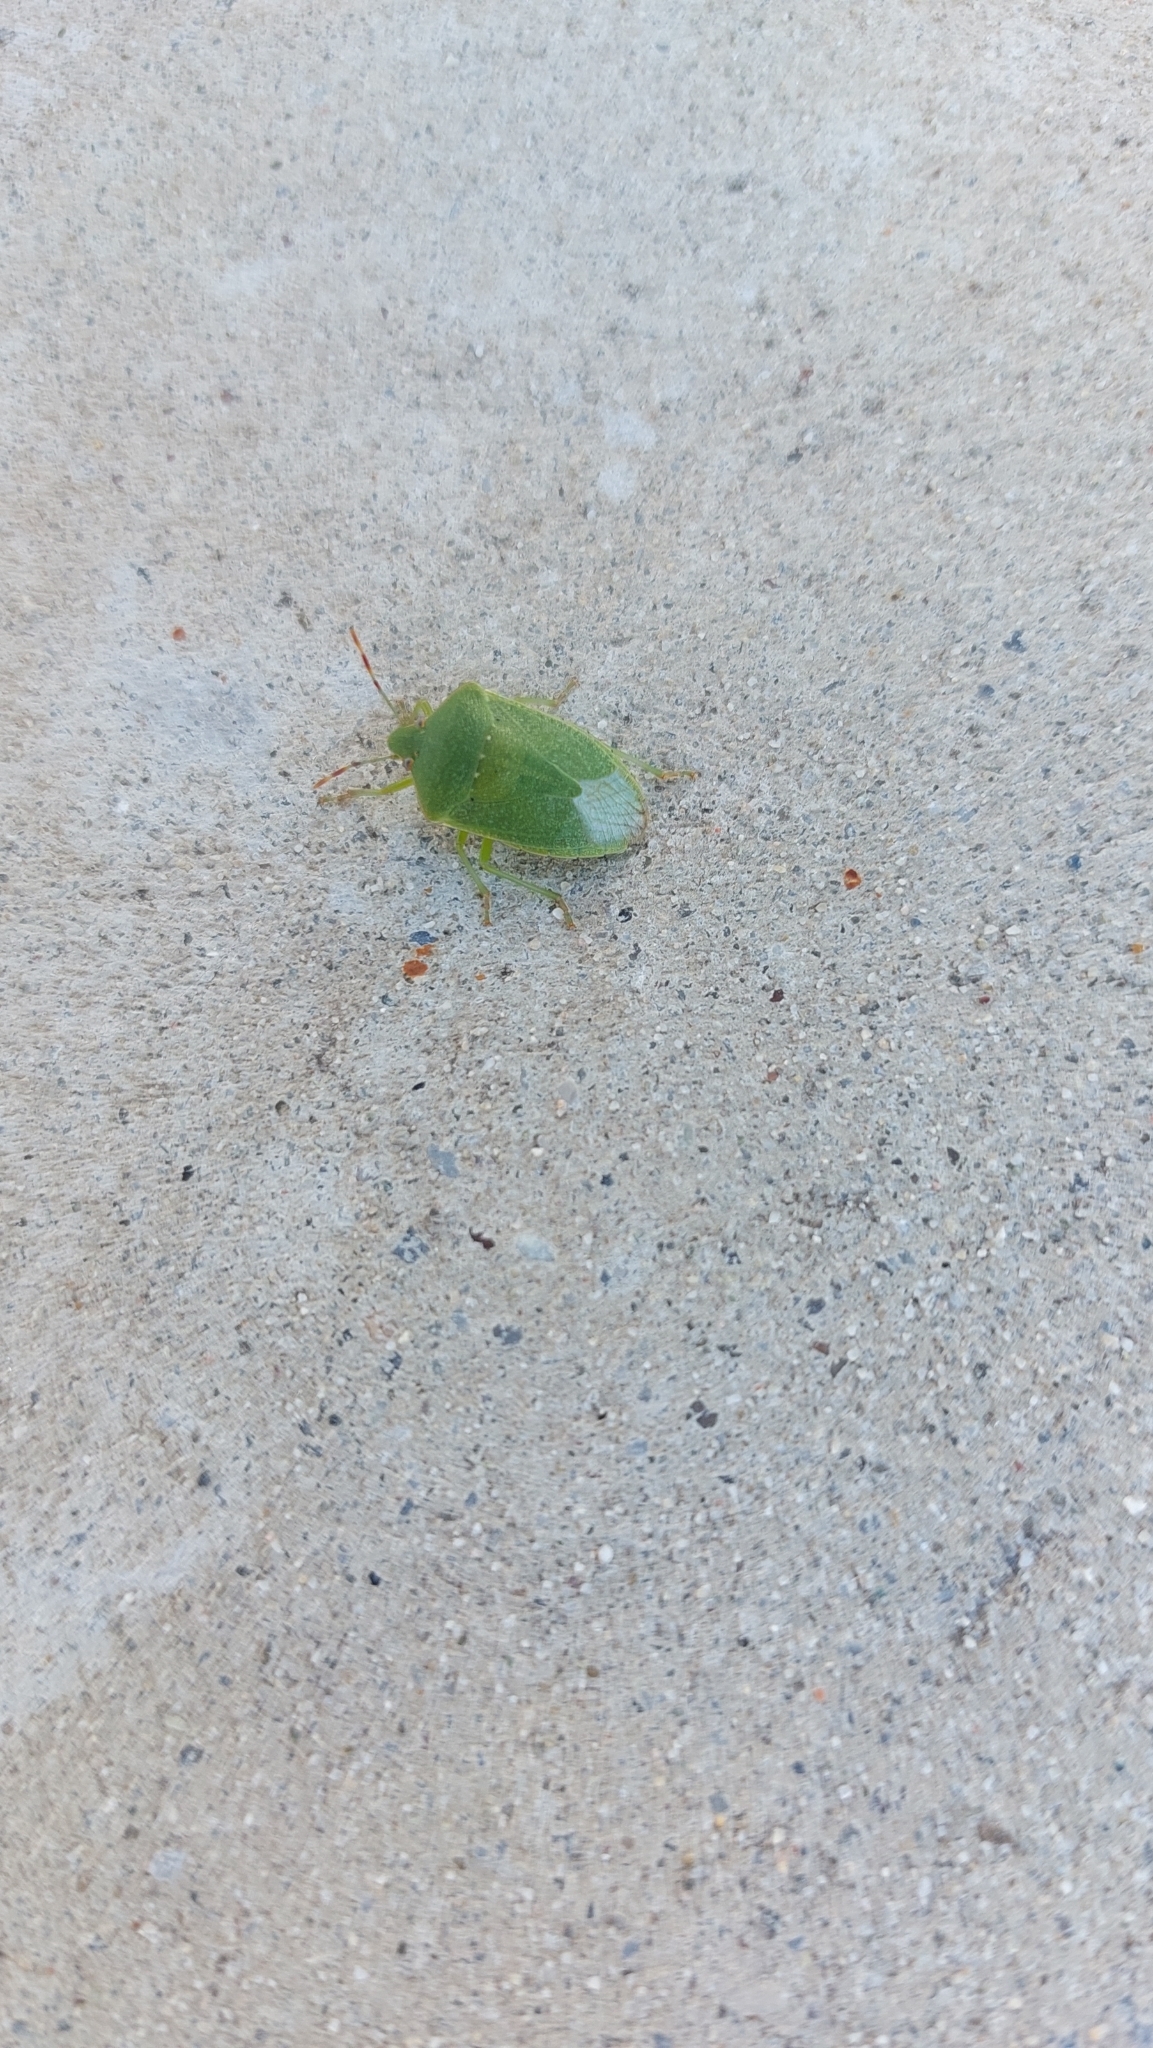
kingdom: Animalia
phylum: Arthropoda
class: Insecta
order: Hemiptera
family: Pentatomidae
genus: Nezara
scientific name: Nezara viridula
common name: Southern green stink bug
